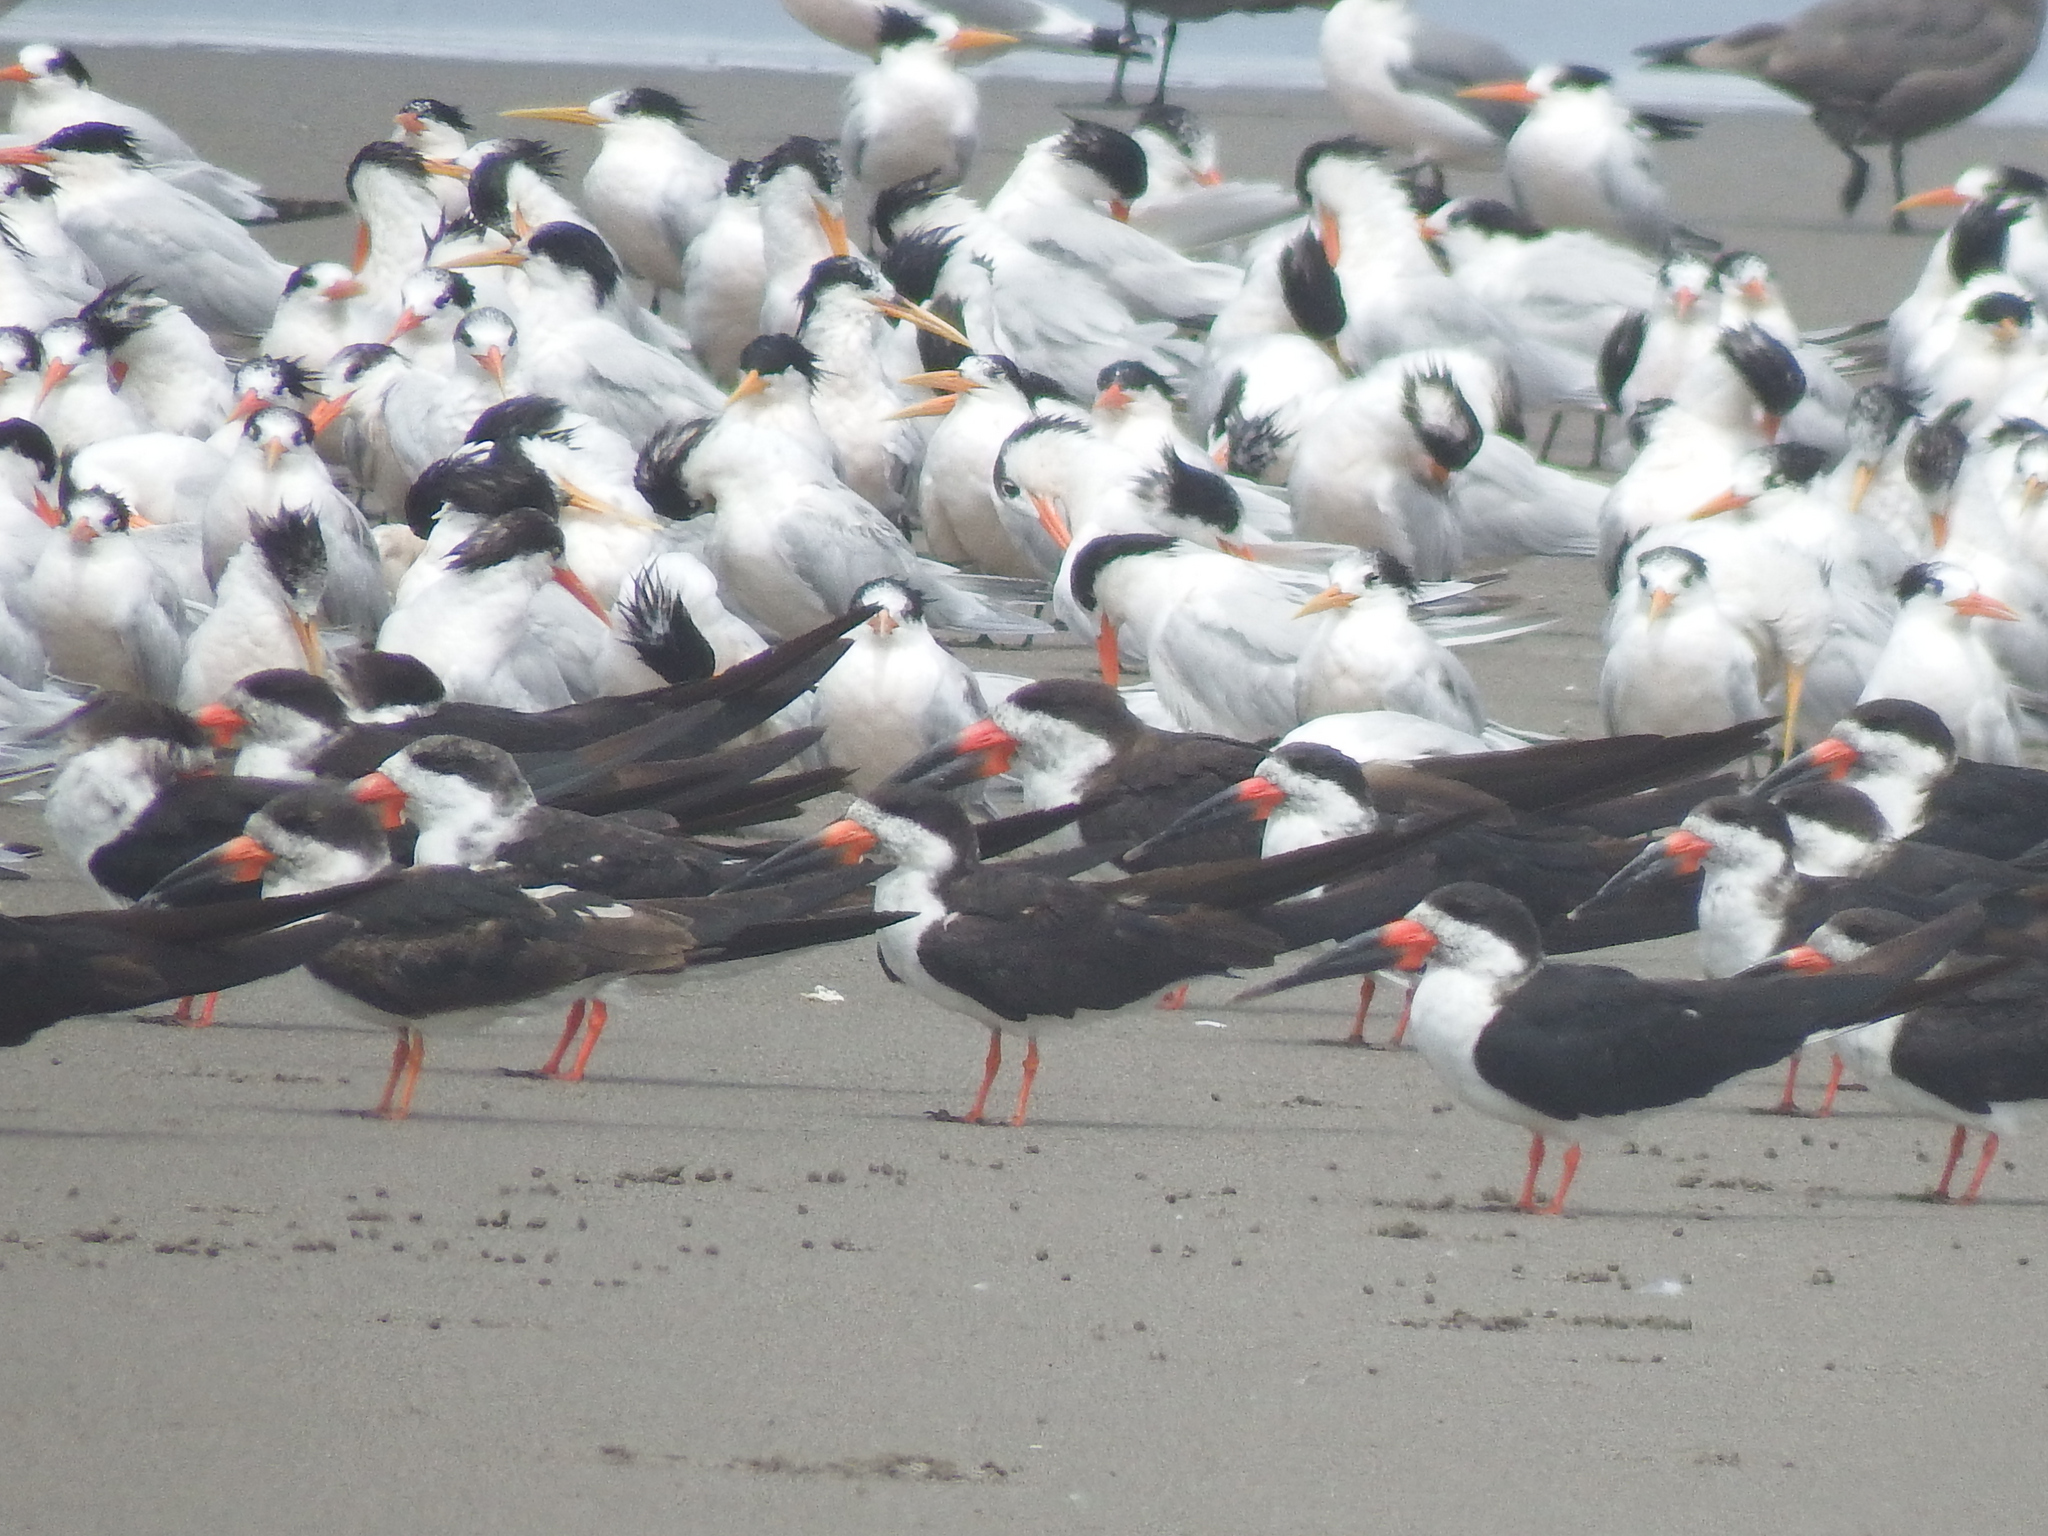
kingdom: Animalia
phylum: Chordata
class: Aves
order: Charadriiformes
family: Laridae
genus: Rynchops
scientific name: Rynchops niger
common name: Black skimmer
